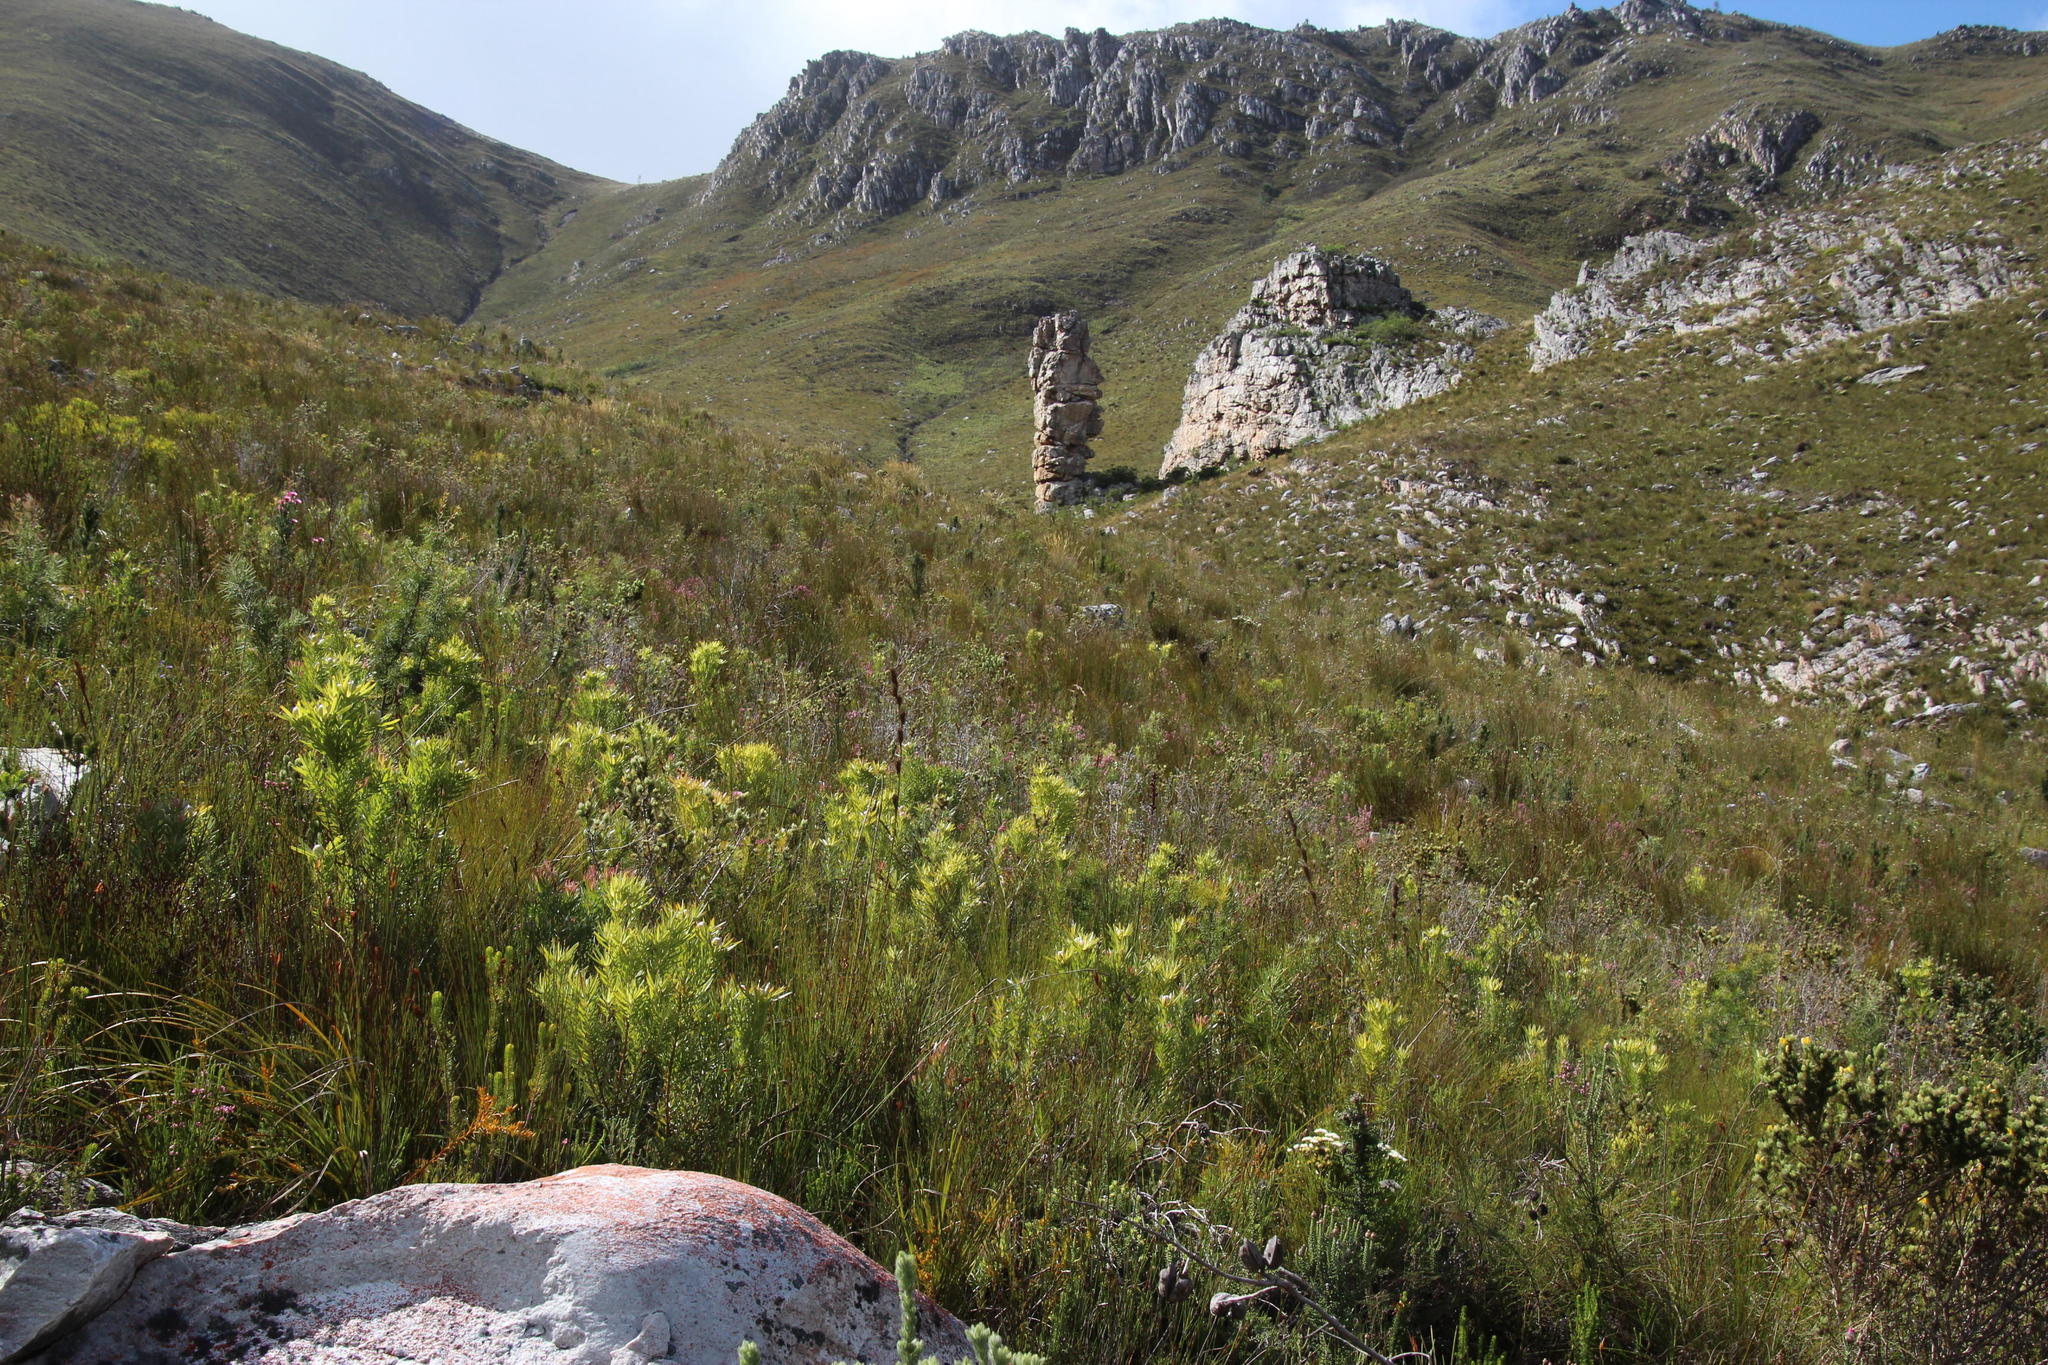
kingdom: Plantae
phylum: Tracheophyta
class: Magnoliopsida
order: Proteales
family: Proteaceae
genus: Leucadendron
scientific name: Leucadendron xanthoconus
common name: Sickle-leaf conebush
